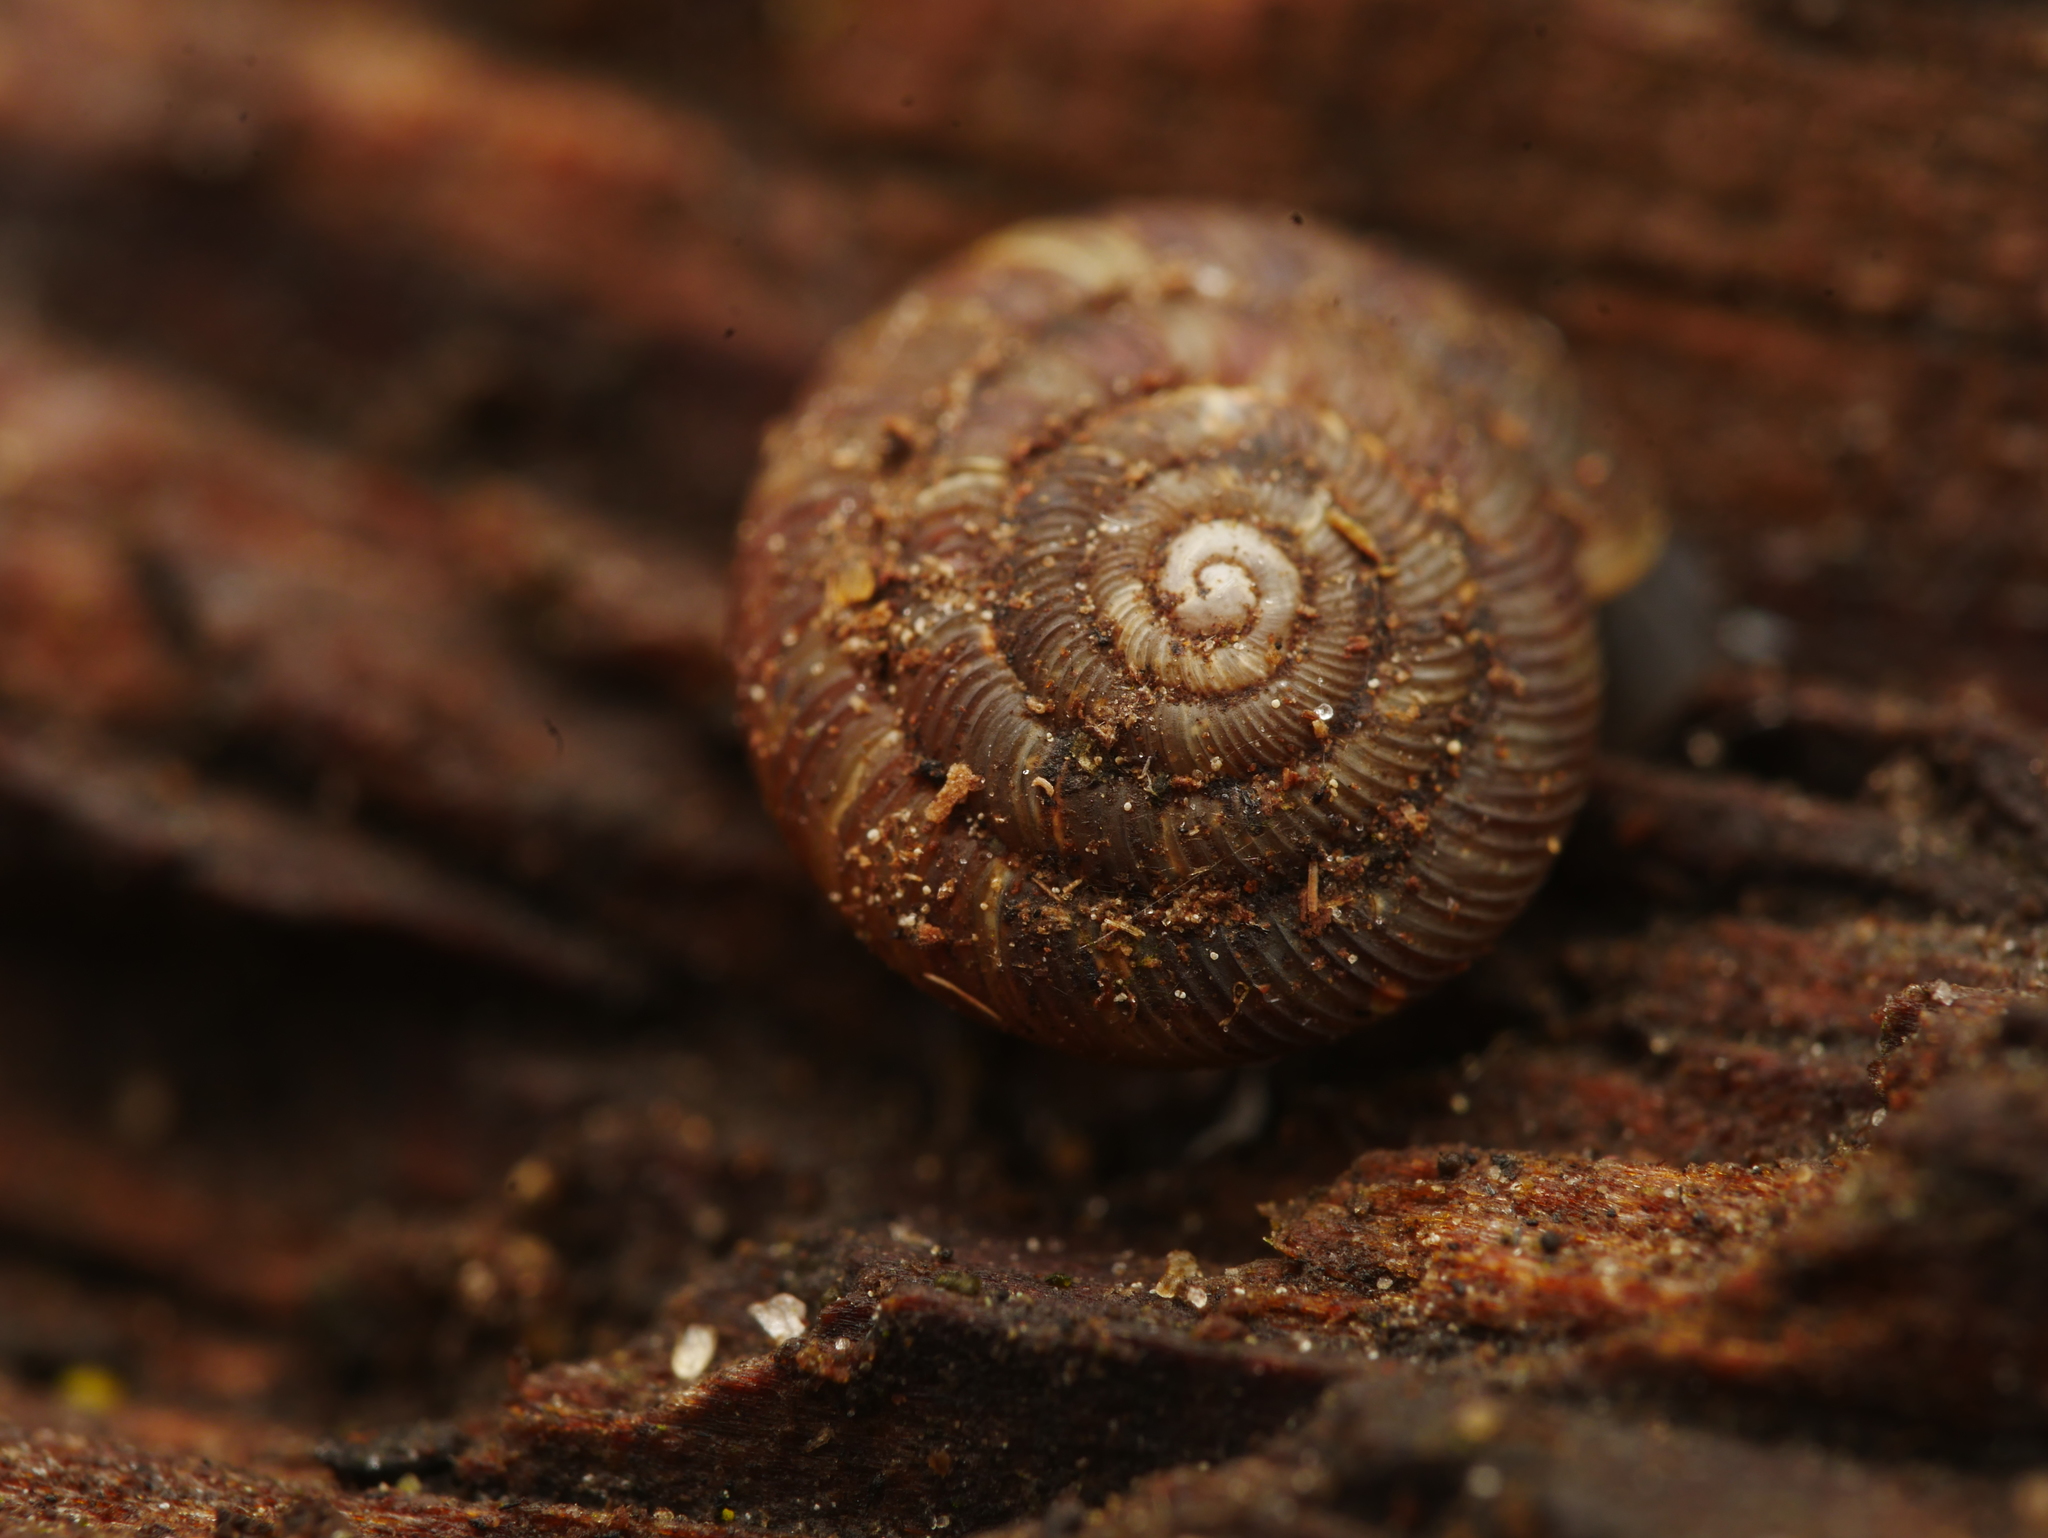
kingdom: Animalia
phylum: Mollusca
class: Gastropoda
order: Stylommatophora
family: Discidae
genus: Discus
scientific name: Discus rotundatus
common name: Rounded snail
